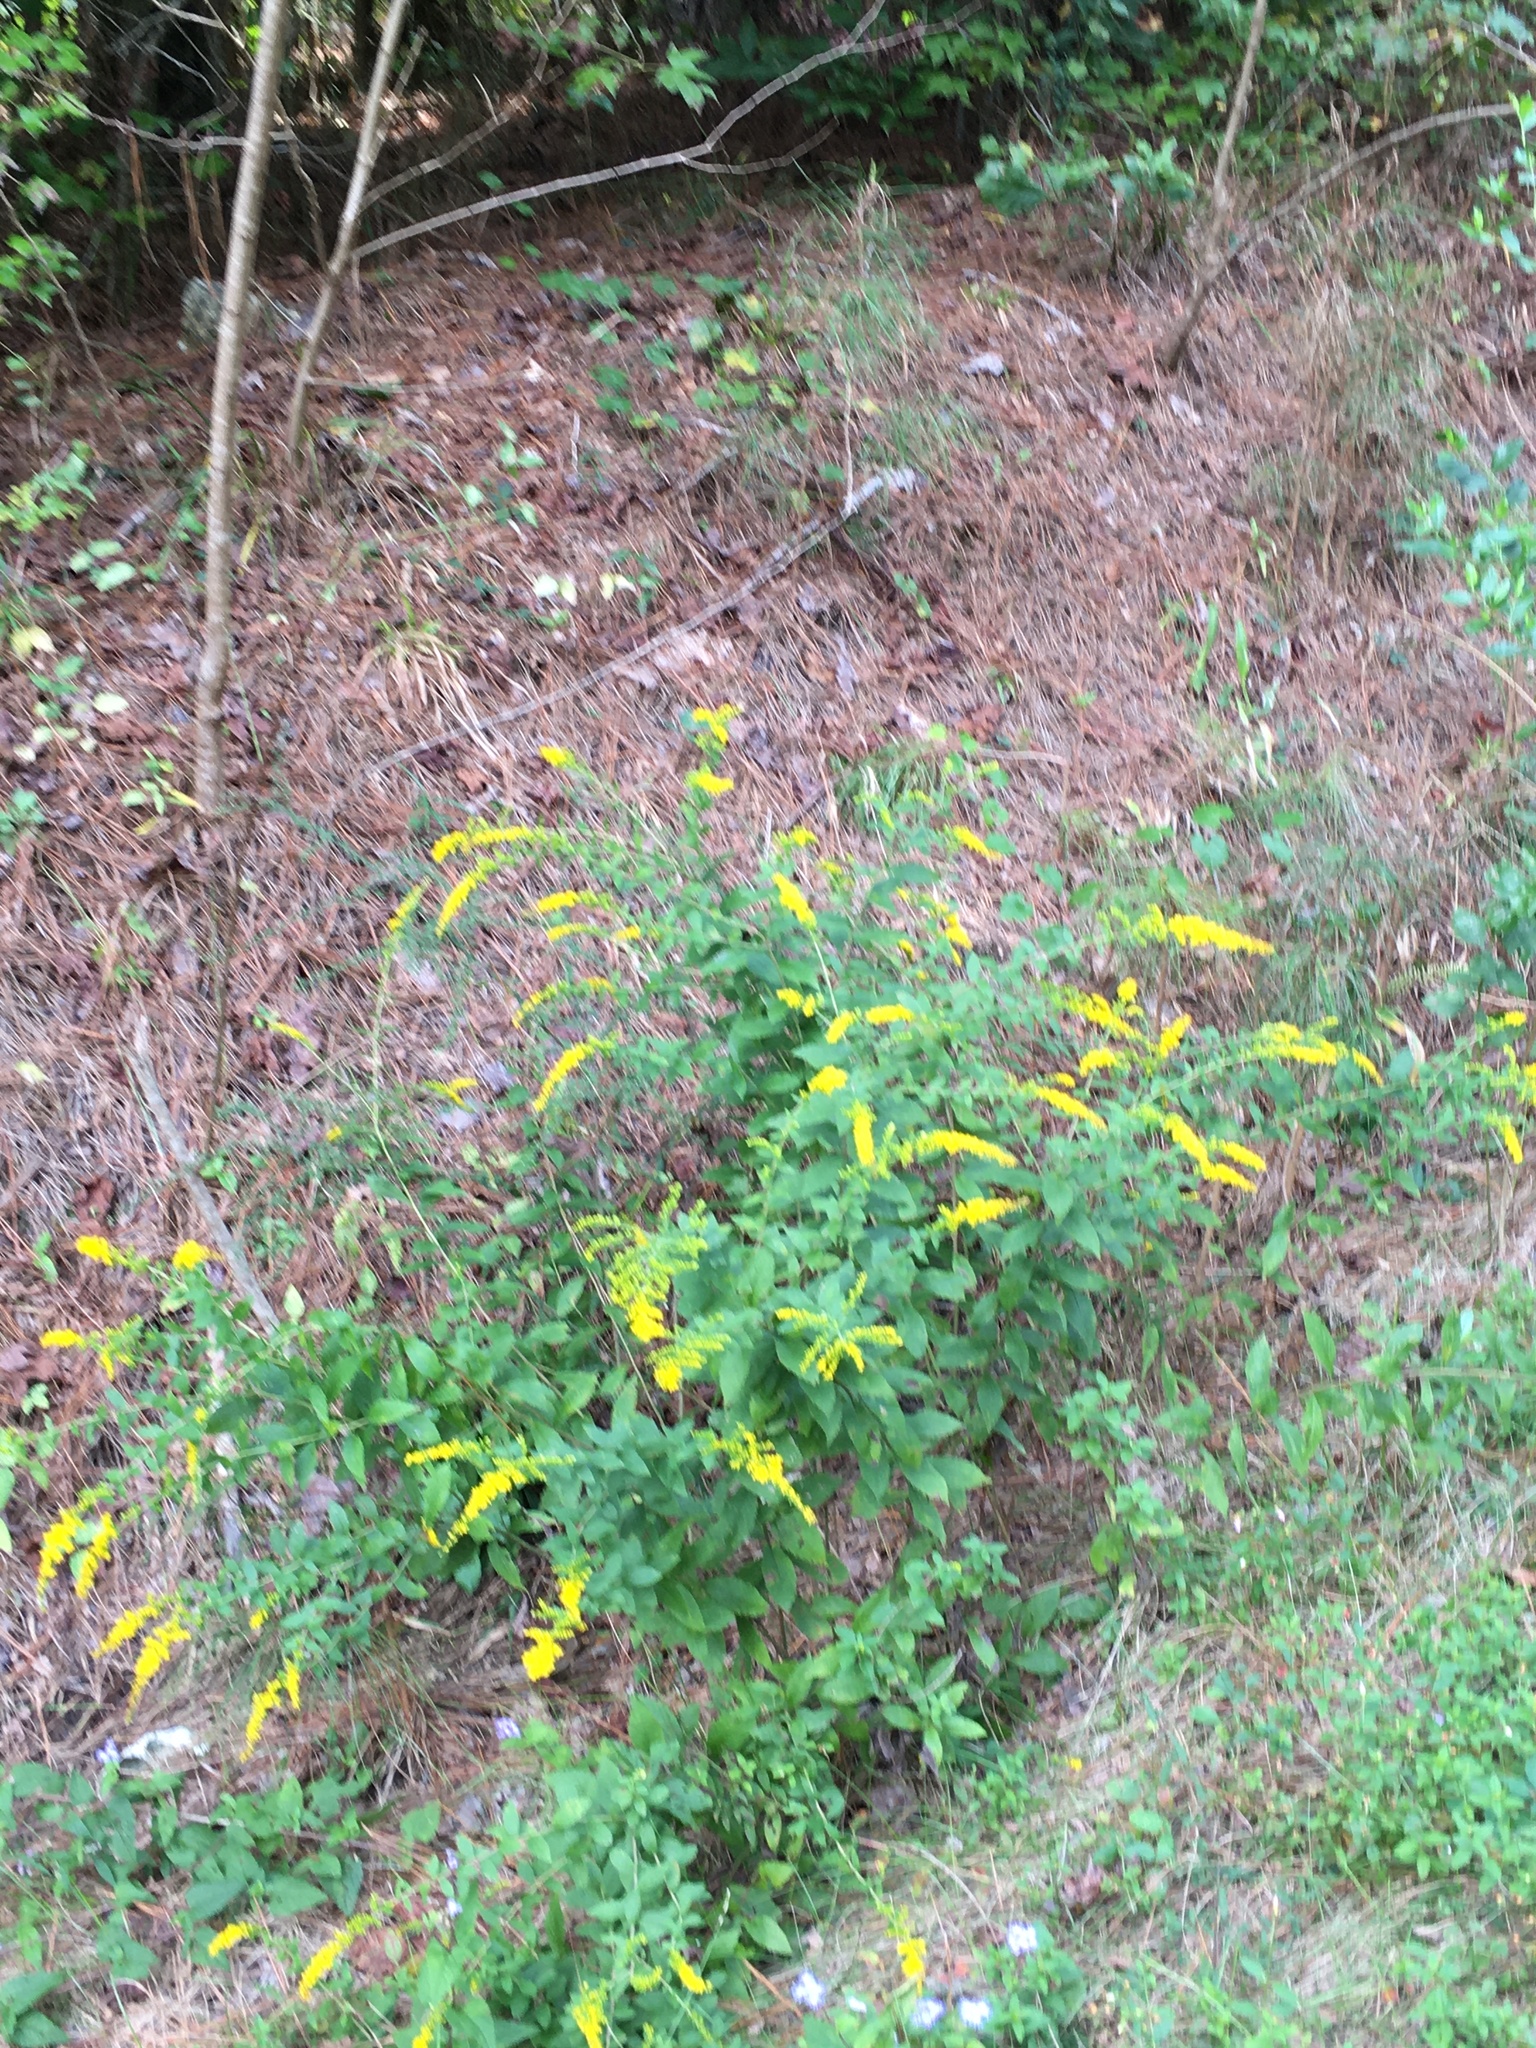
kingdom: Plantae
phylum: Tracheophyta
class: Magnoliopsida
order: Asterales
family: Asteraceae
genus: Solidago
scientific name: Solidago rugosa
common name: Rough-stemmed goldenrod
